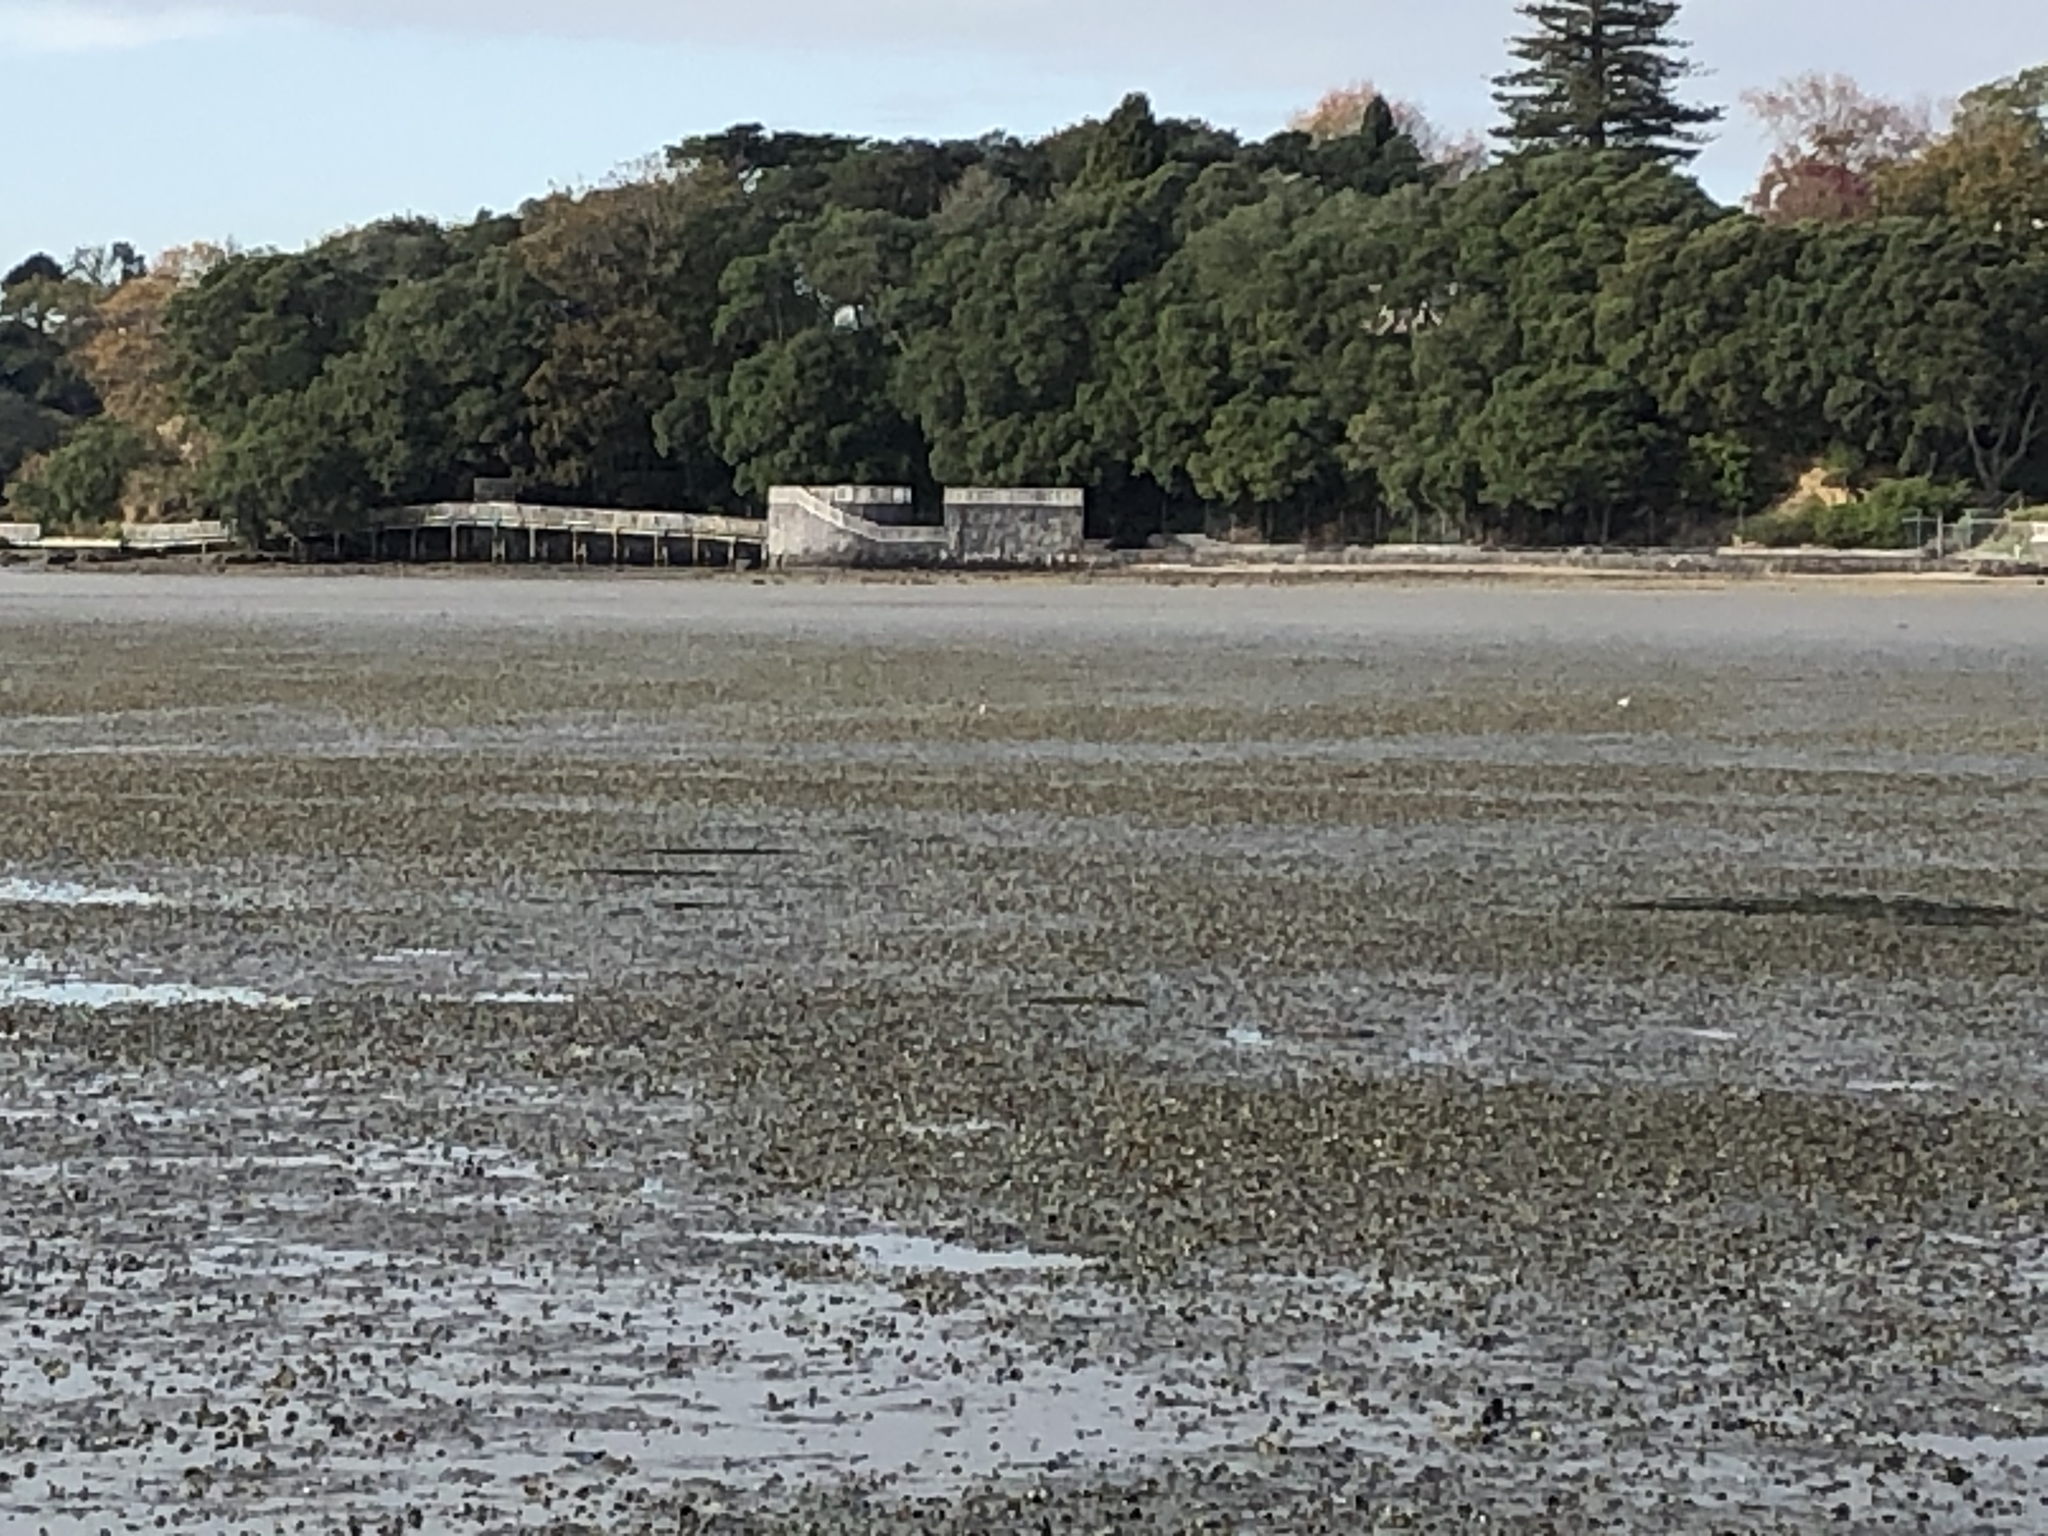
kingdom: Animalia
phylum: Chordata
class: Aves
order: Charadriiformes
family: Charadriidae
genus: Anarhynchus
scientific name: Anarhynchus
